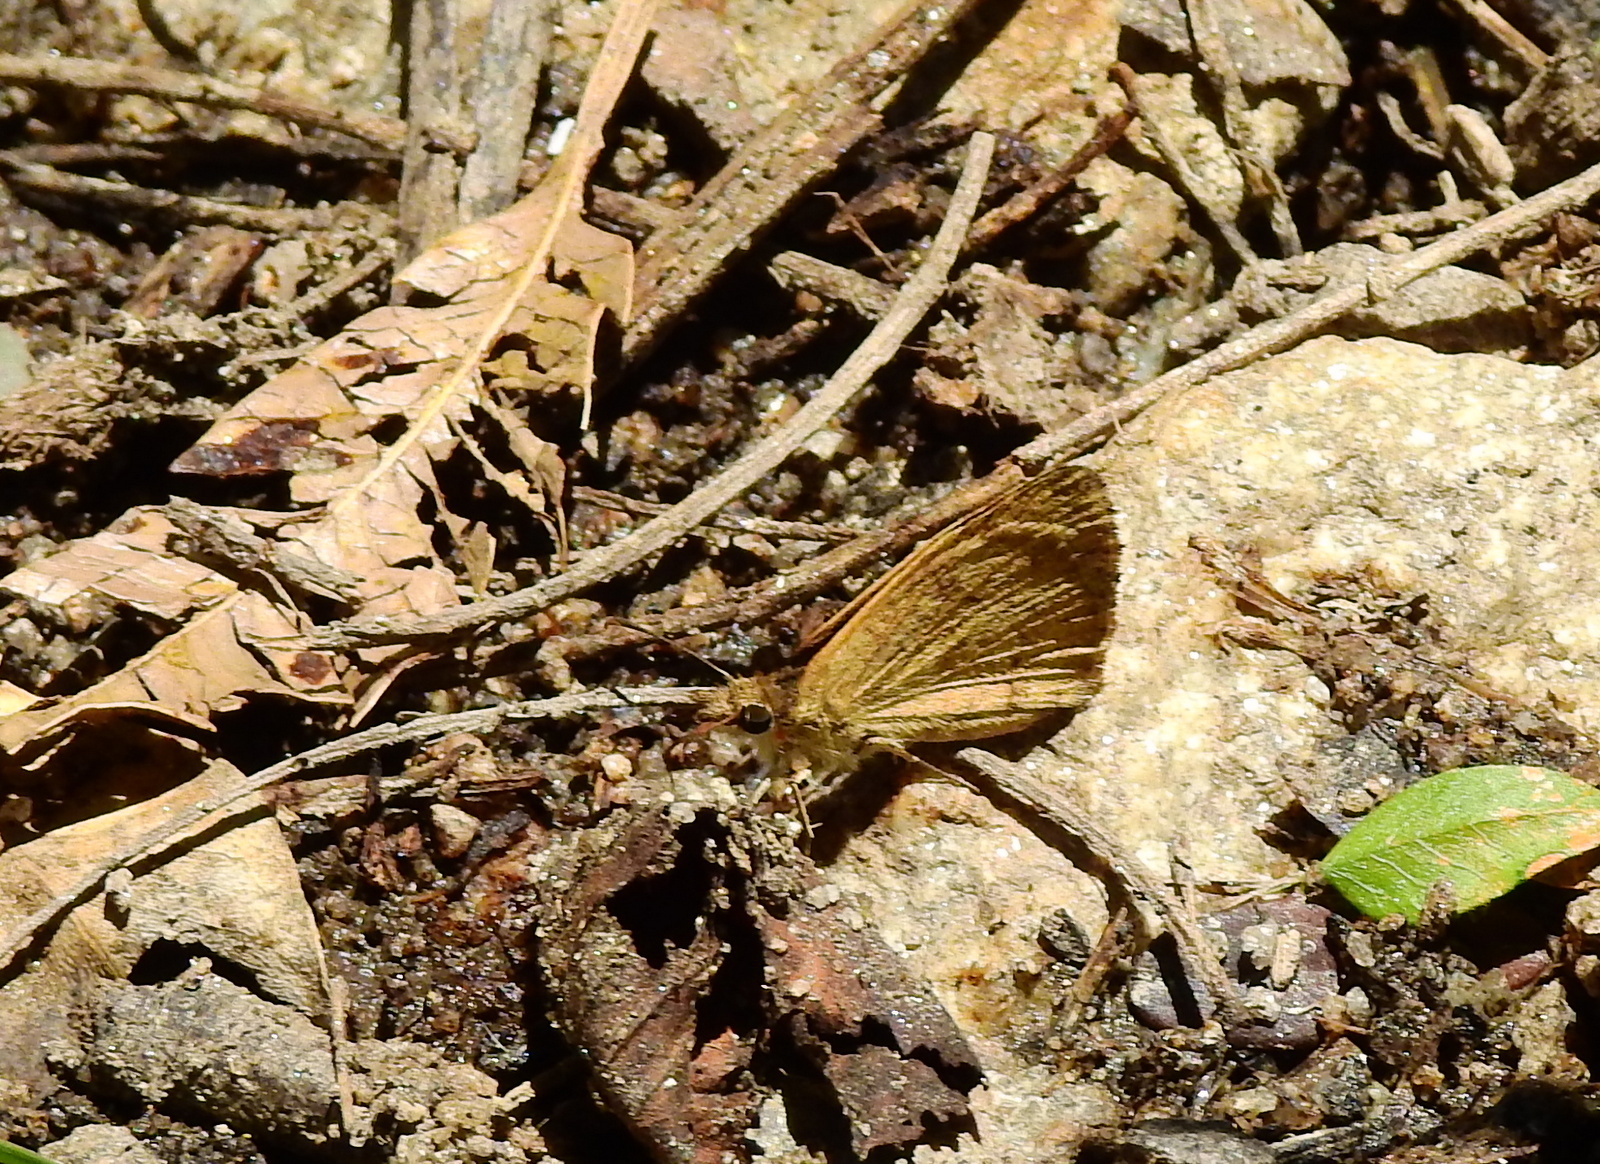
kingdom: Animalia
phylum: Arthropoda
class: Insecta
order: Lepidoptera
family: Hesperiidae
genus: Zopyrion
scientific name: Zopyrion evenor
